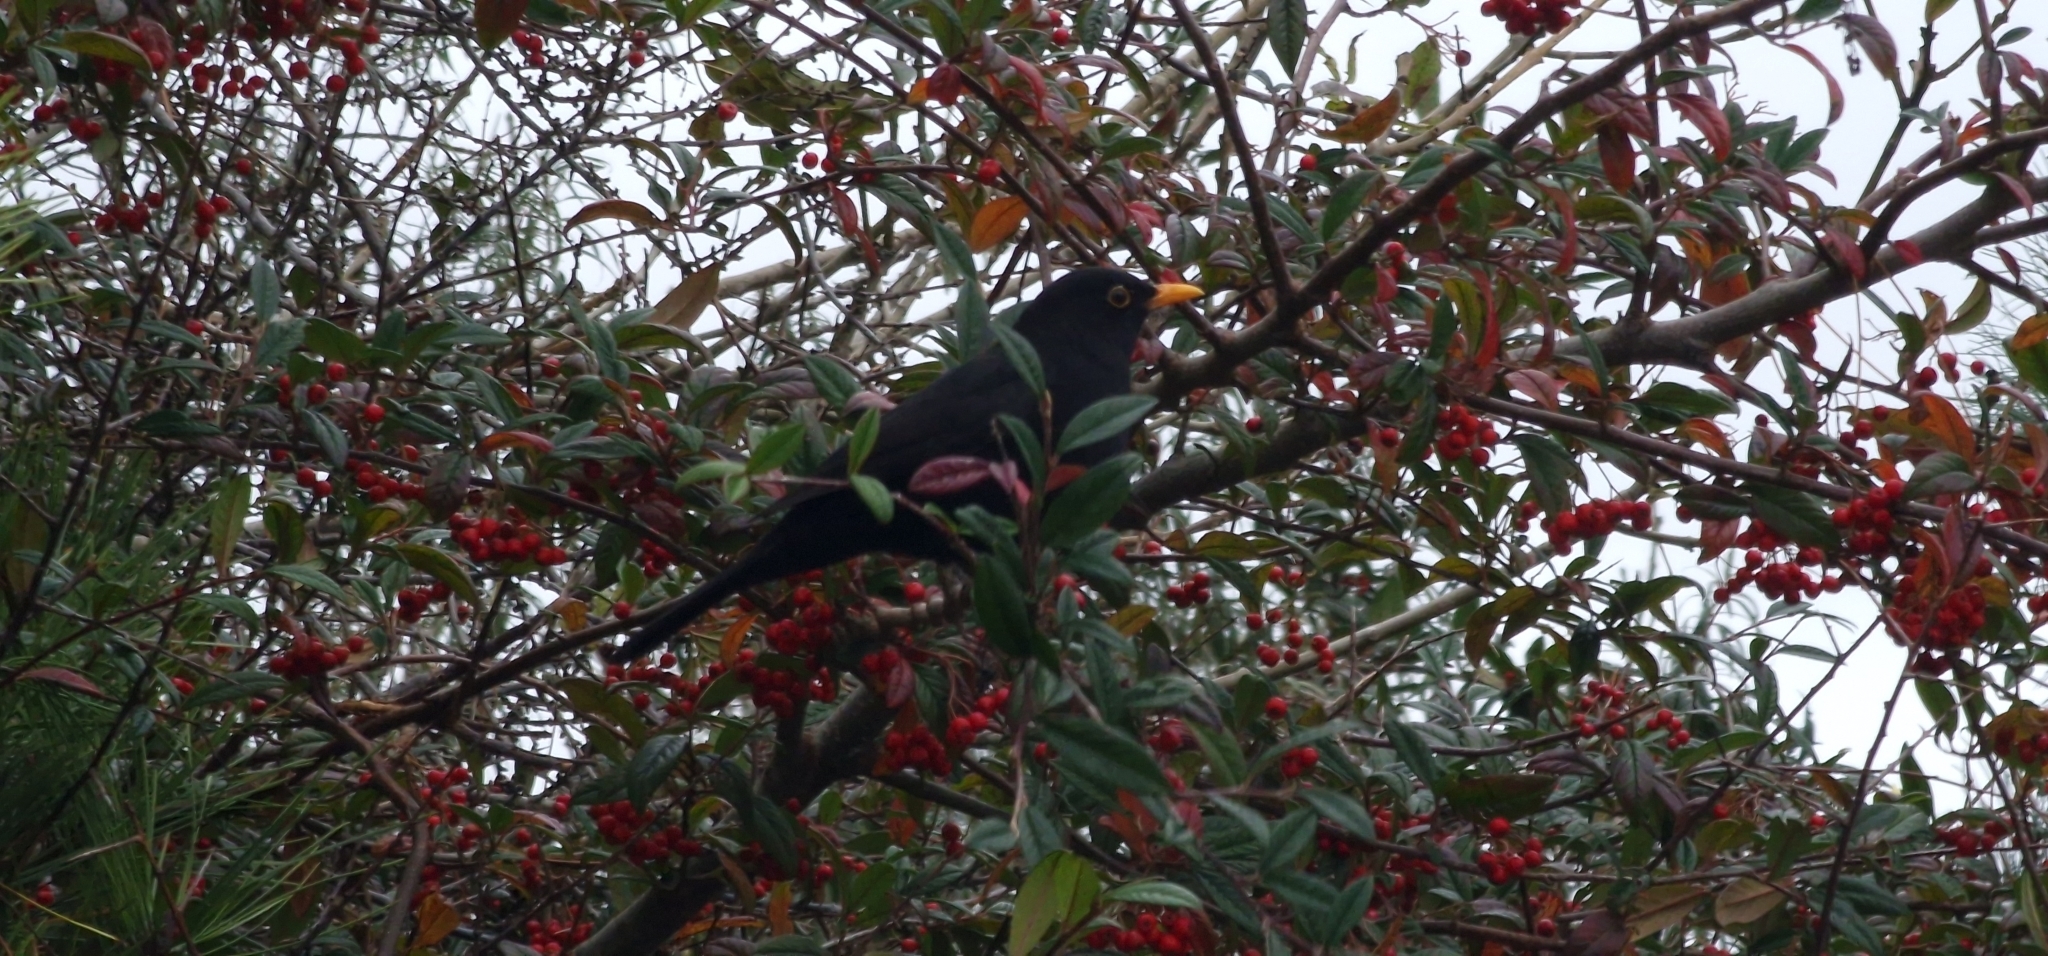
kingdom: Animalia
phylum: Chordata
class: Aves
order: Passeriformes
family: Turdidae
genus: Turdus
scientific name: Turdus merula
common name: Common blackbird
